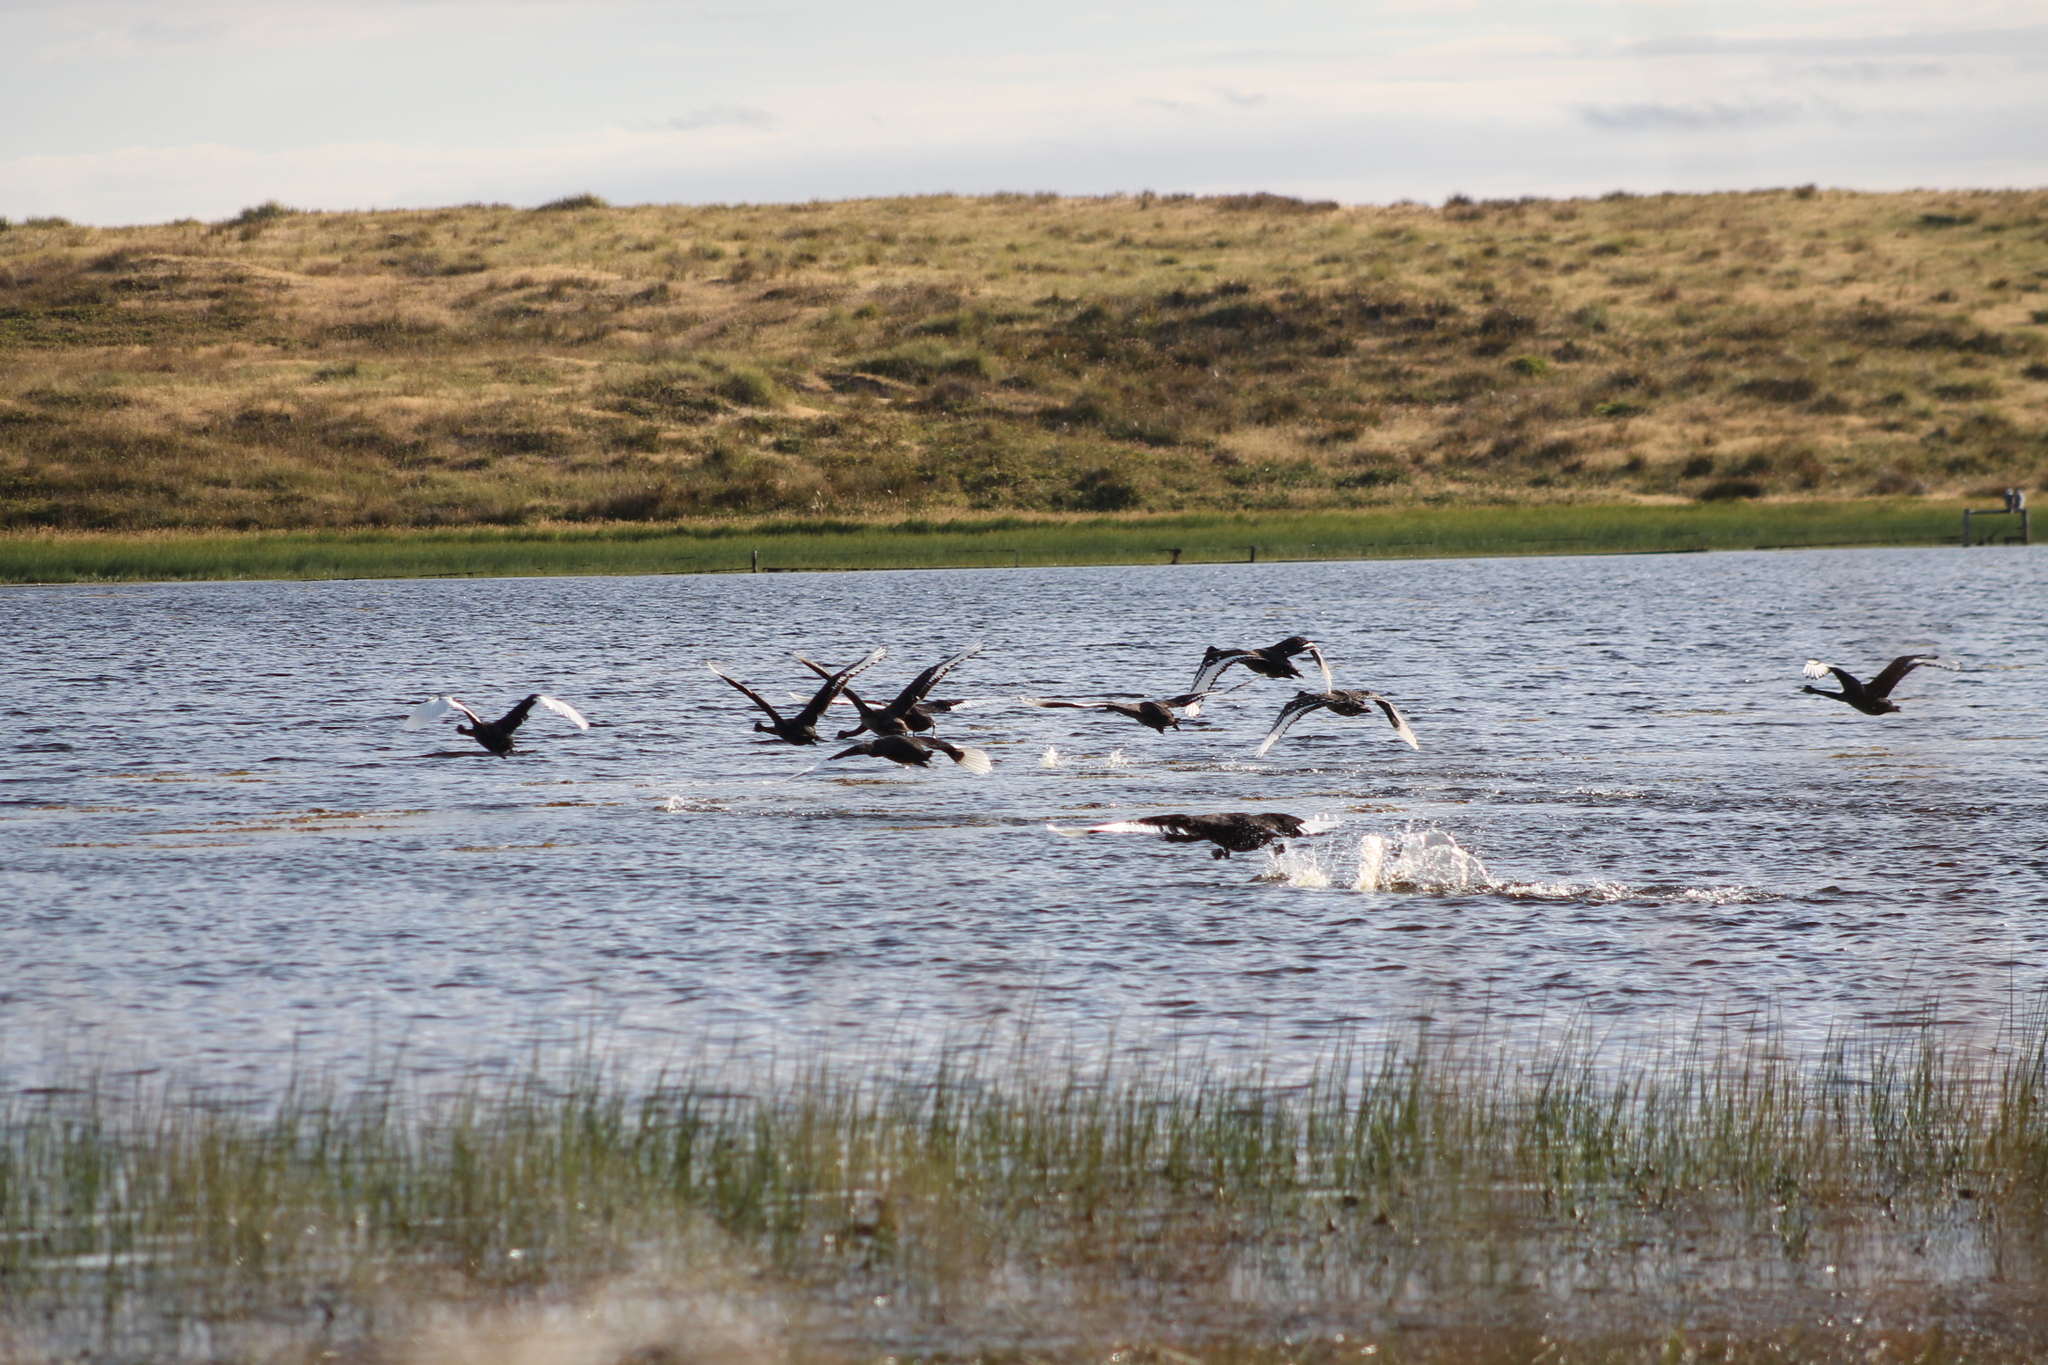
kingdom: Animalia
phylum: Chordata
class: Aves
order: Anseriformes
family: Anatidae
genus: Cygnus
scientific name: Cygnus atratus
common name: Black swan
